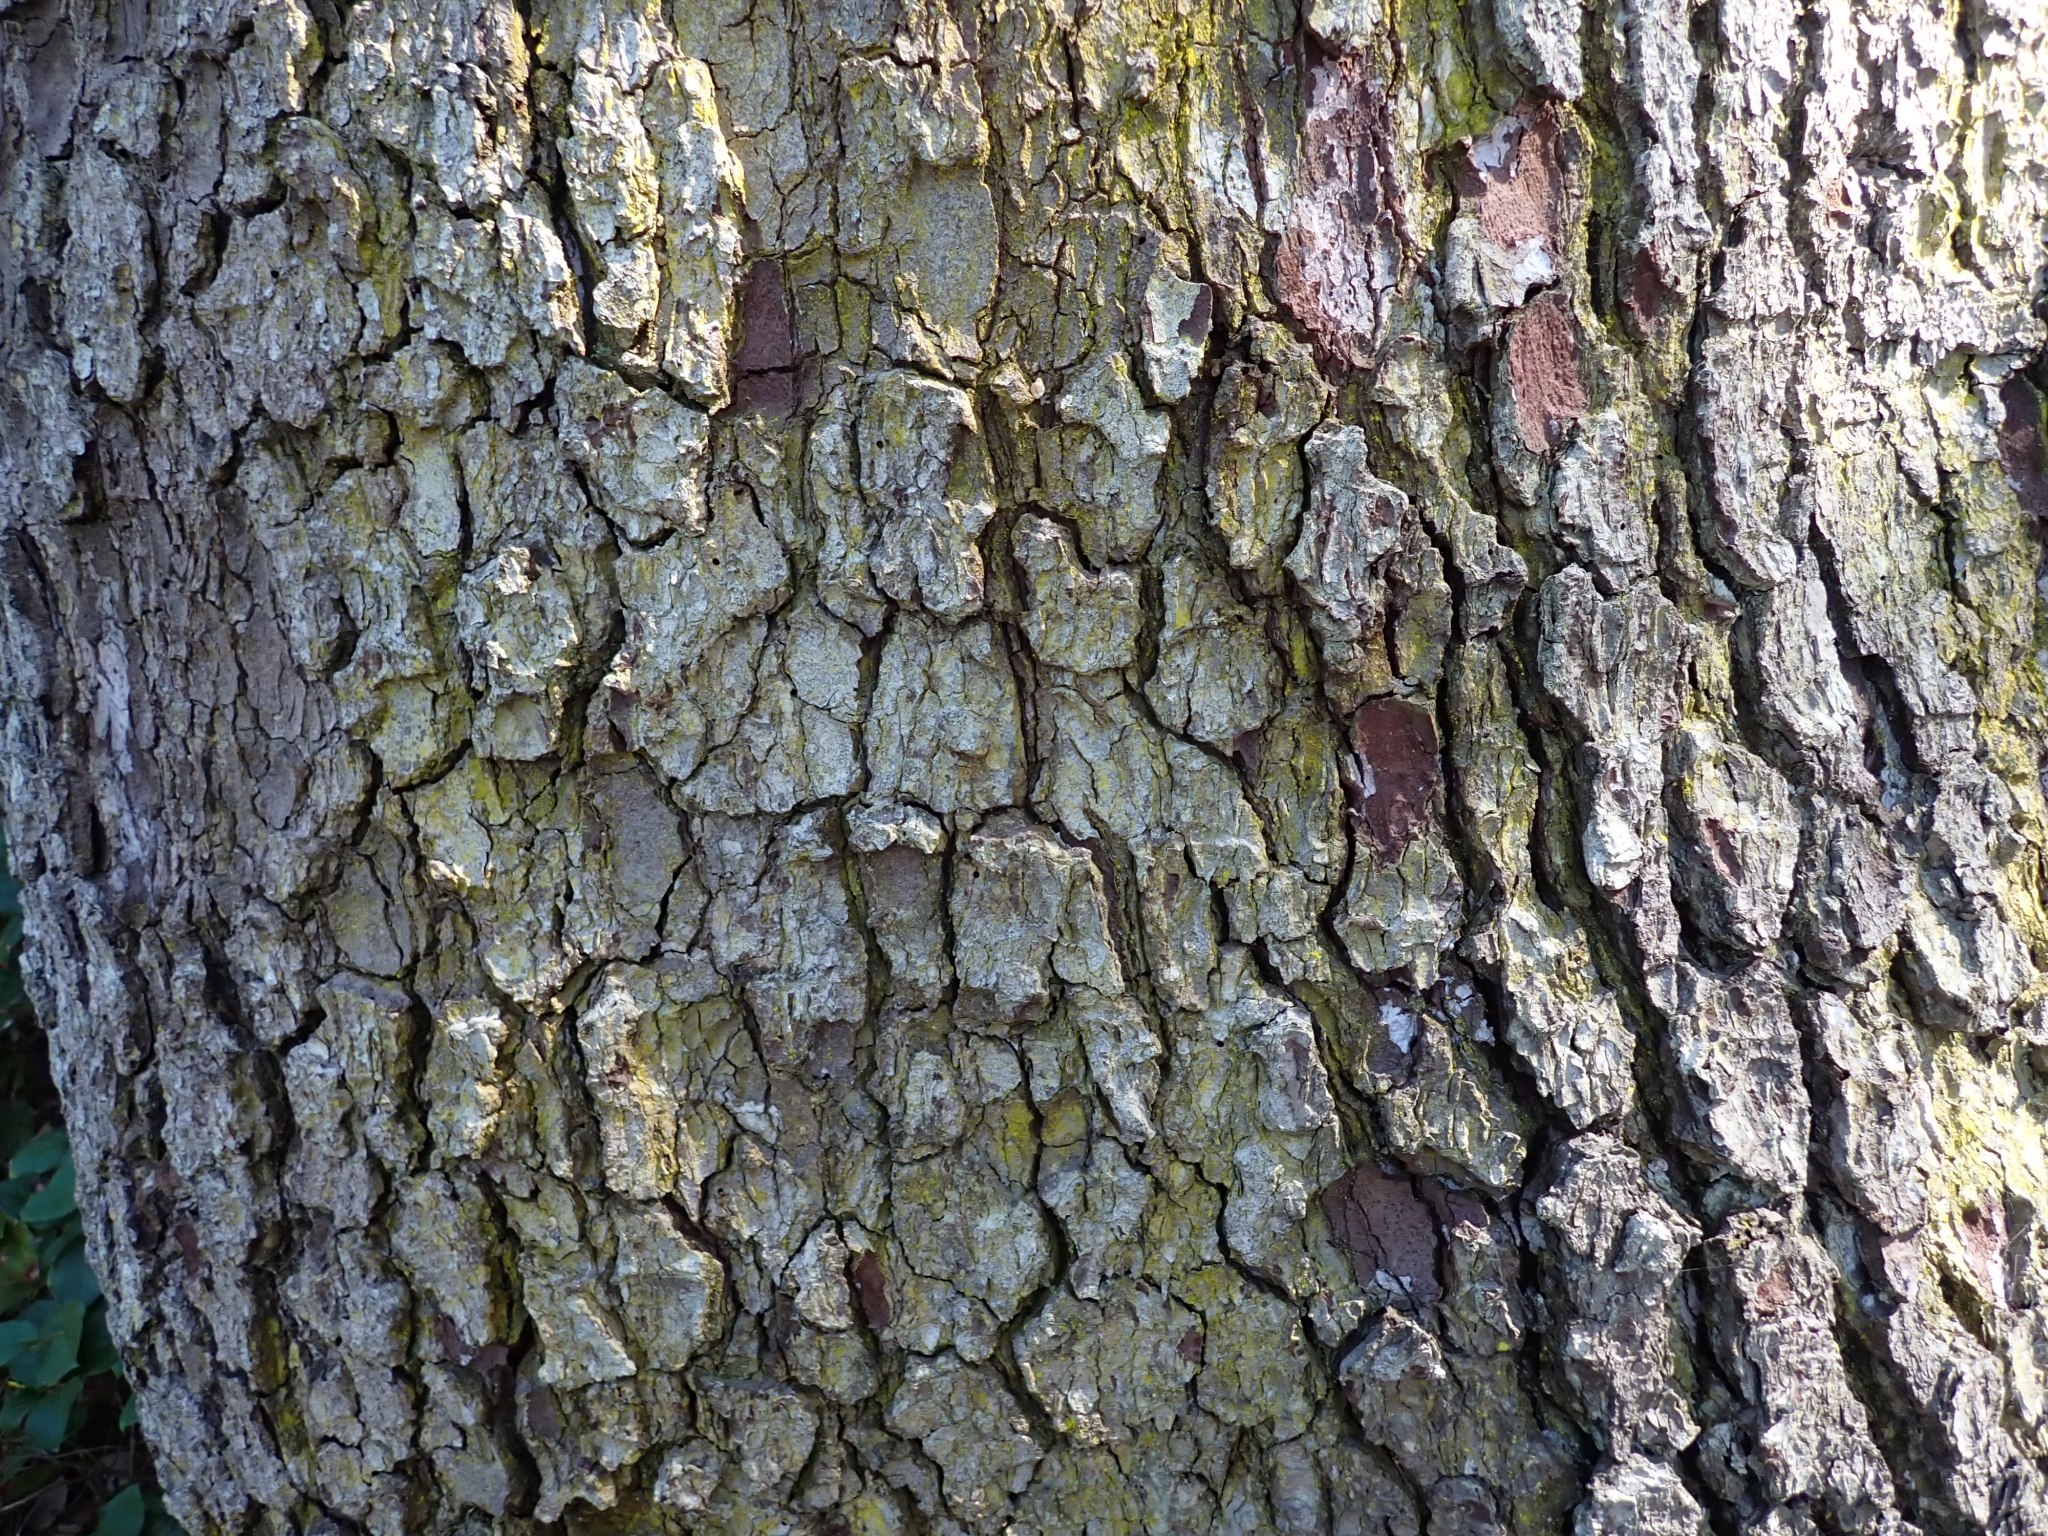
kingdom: Plantae
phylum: Tracheophyta
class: Pinopsida
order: Pinales
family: Pinaceae
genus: Picea
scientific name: Picea sitchensis
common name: Sitka spruce
